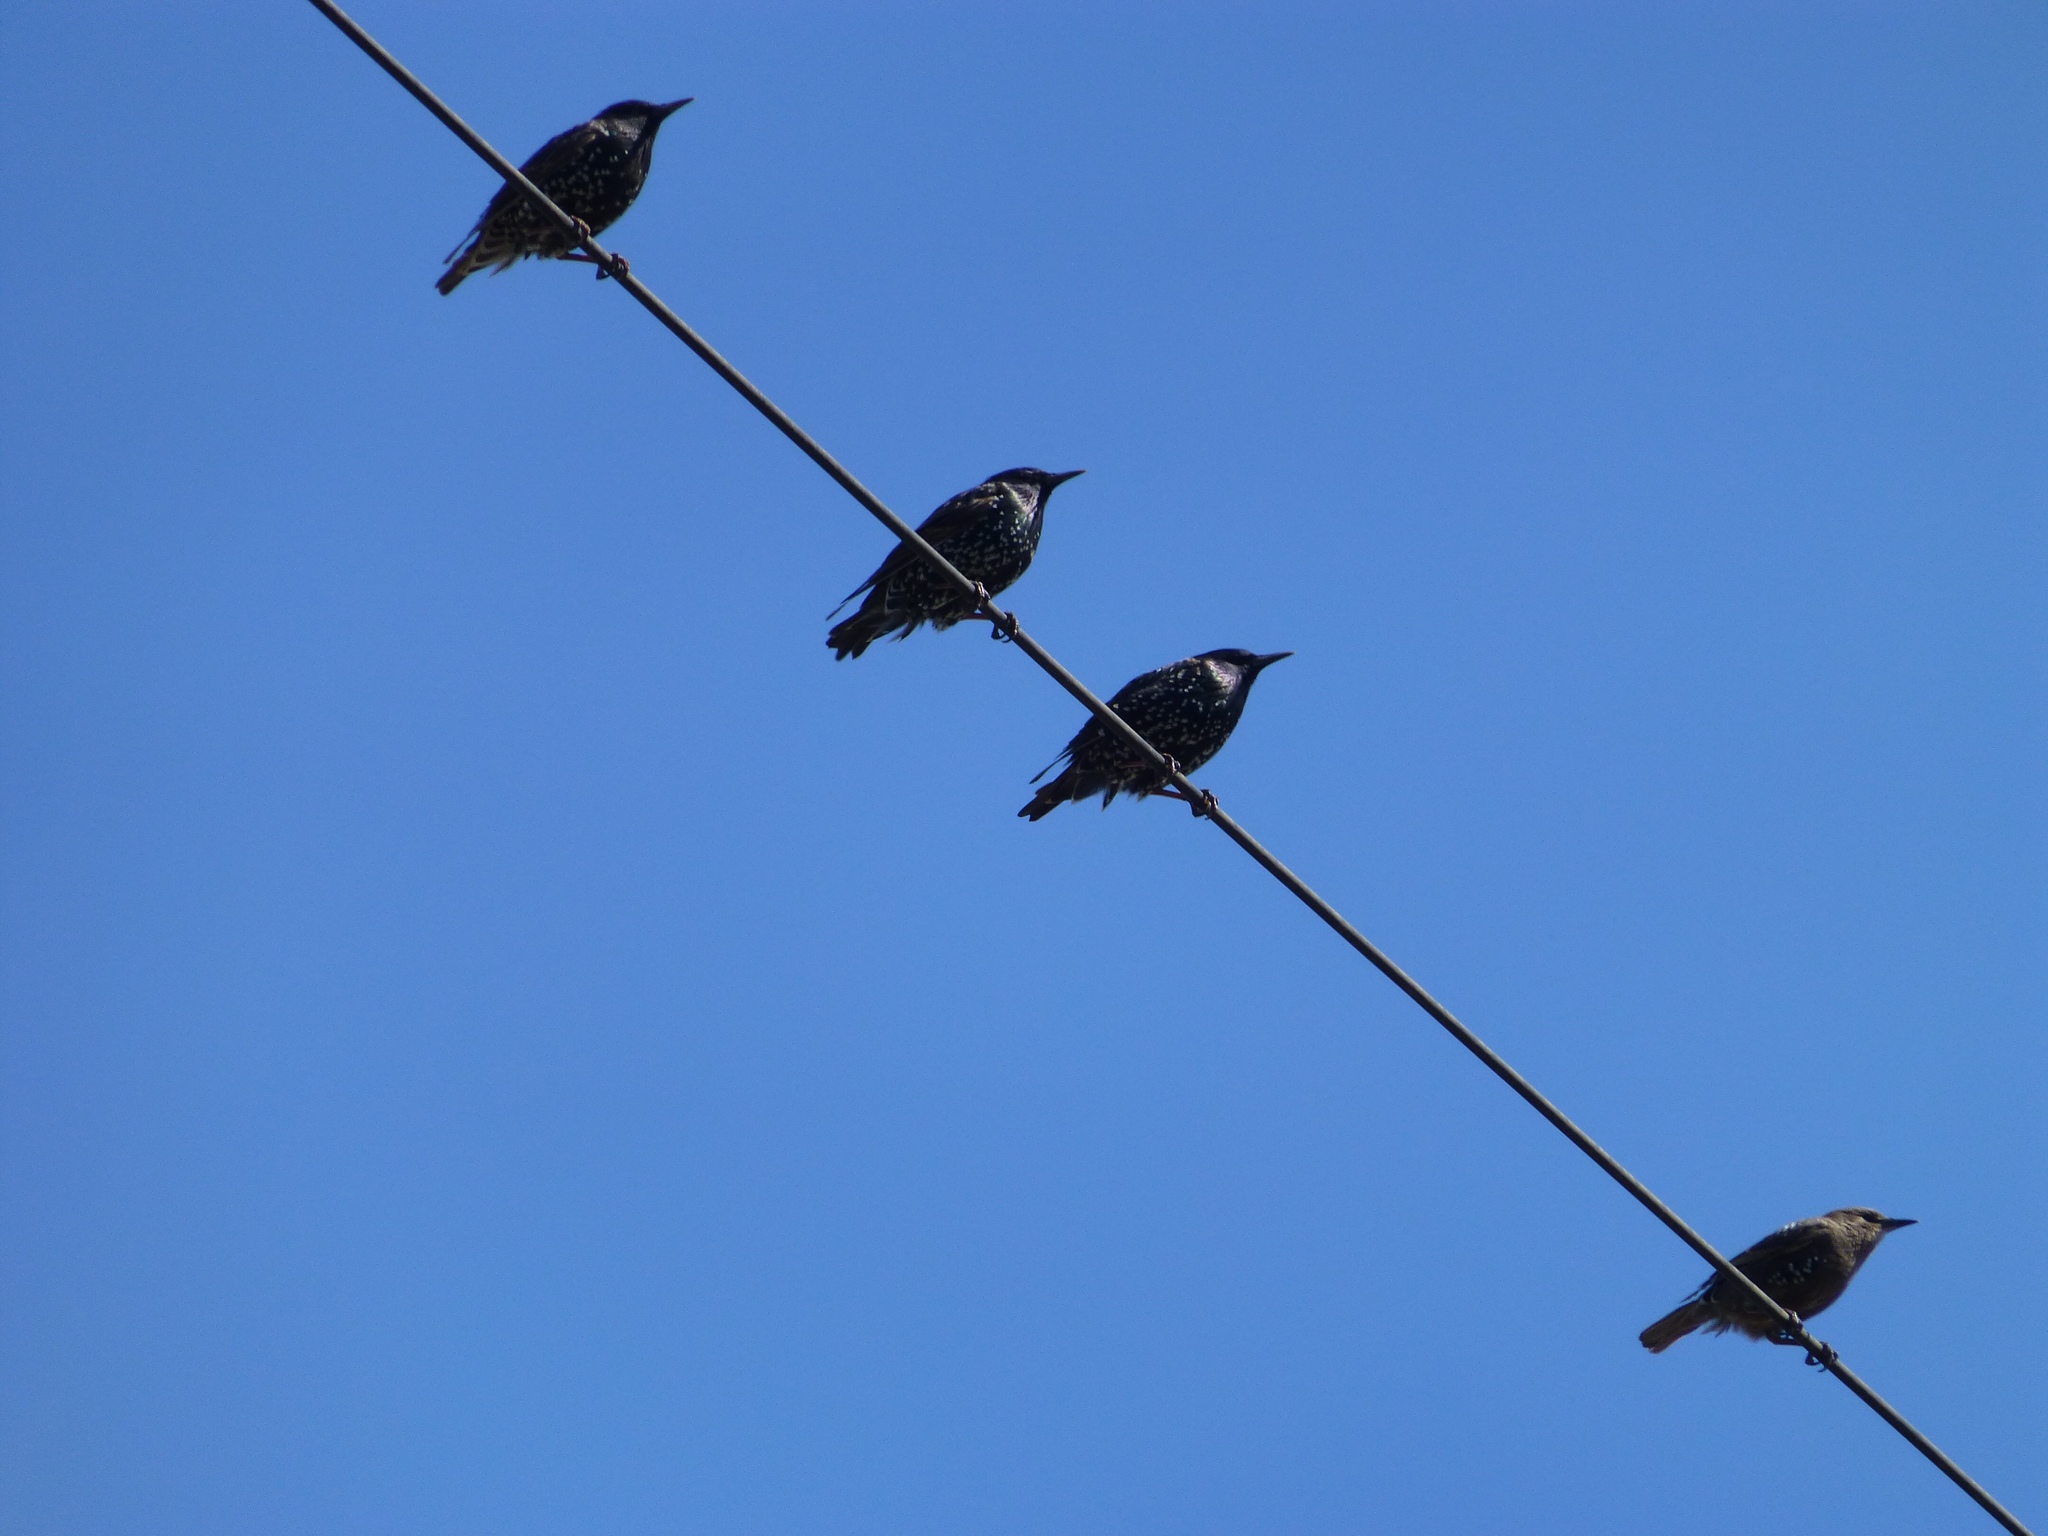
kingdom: Animalia
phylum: Chordata
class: Aves
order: Passeriformes
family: Sturnidae
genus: Sturnus
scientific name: Sturnus vulgaris
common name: Common starling
